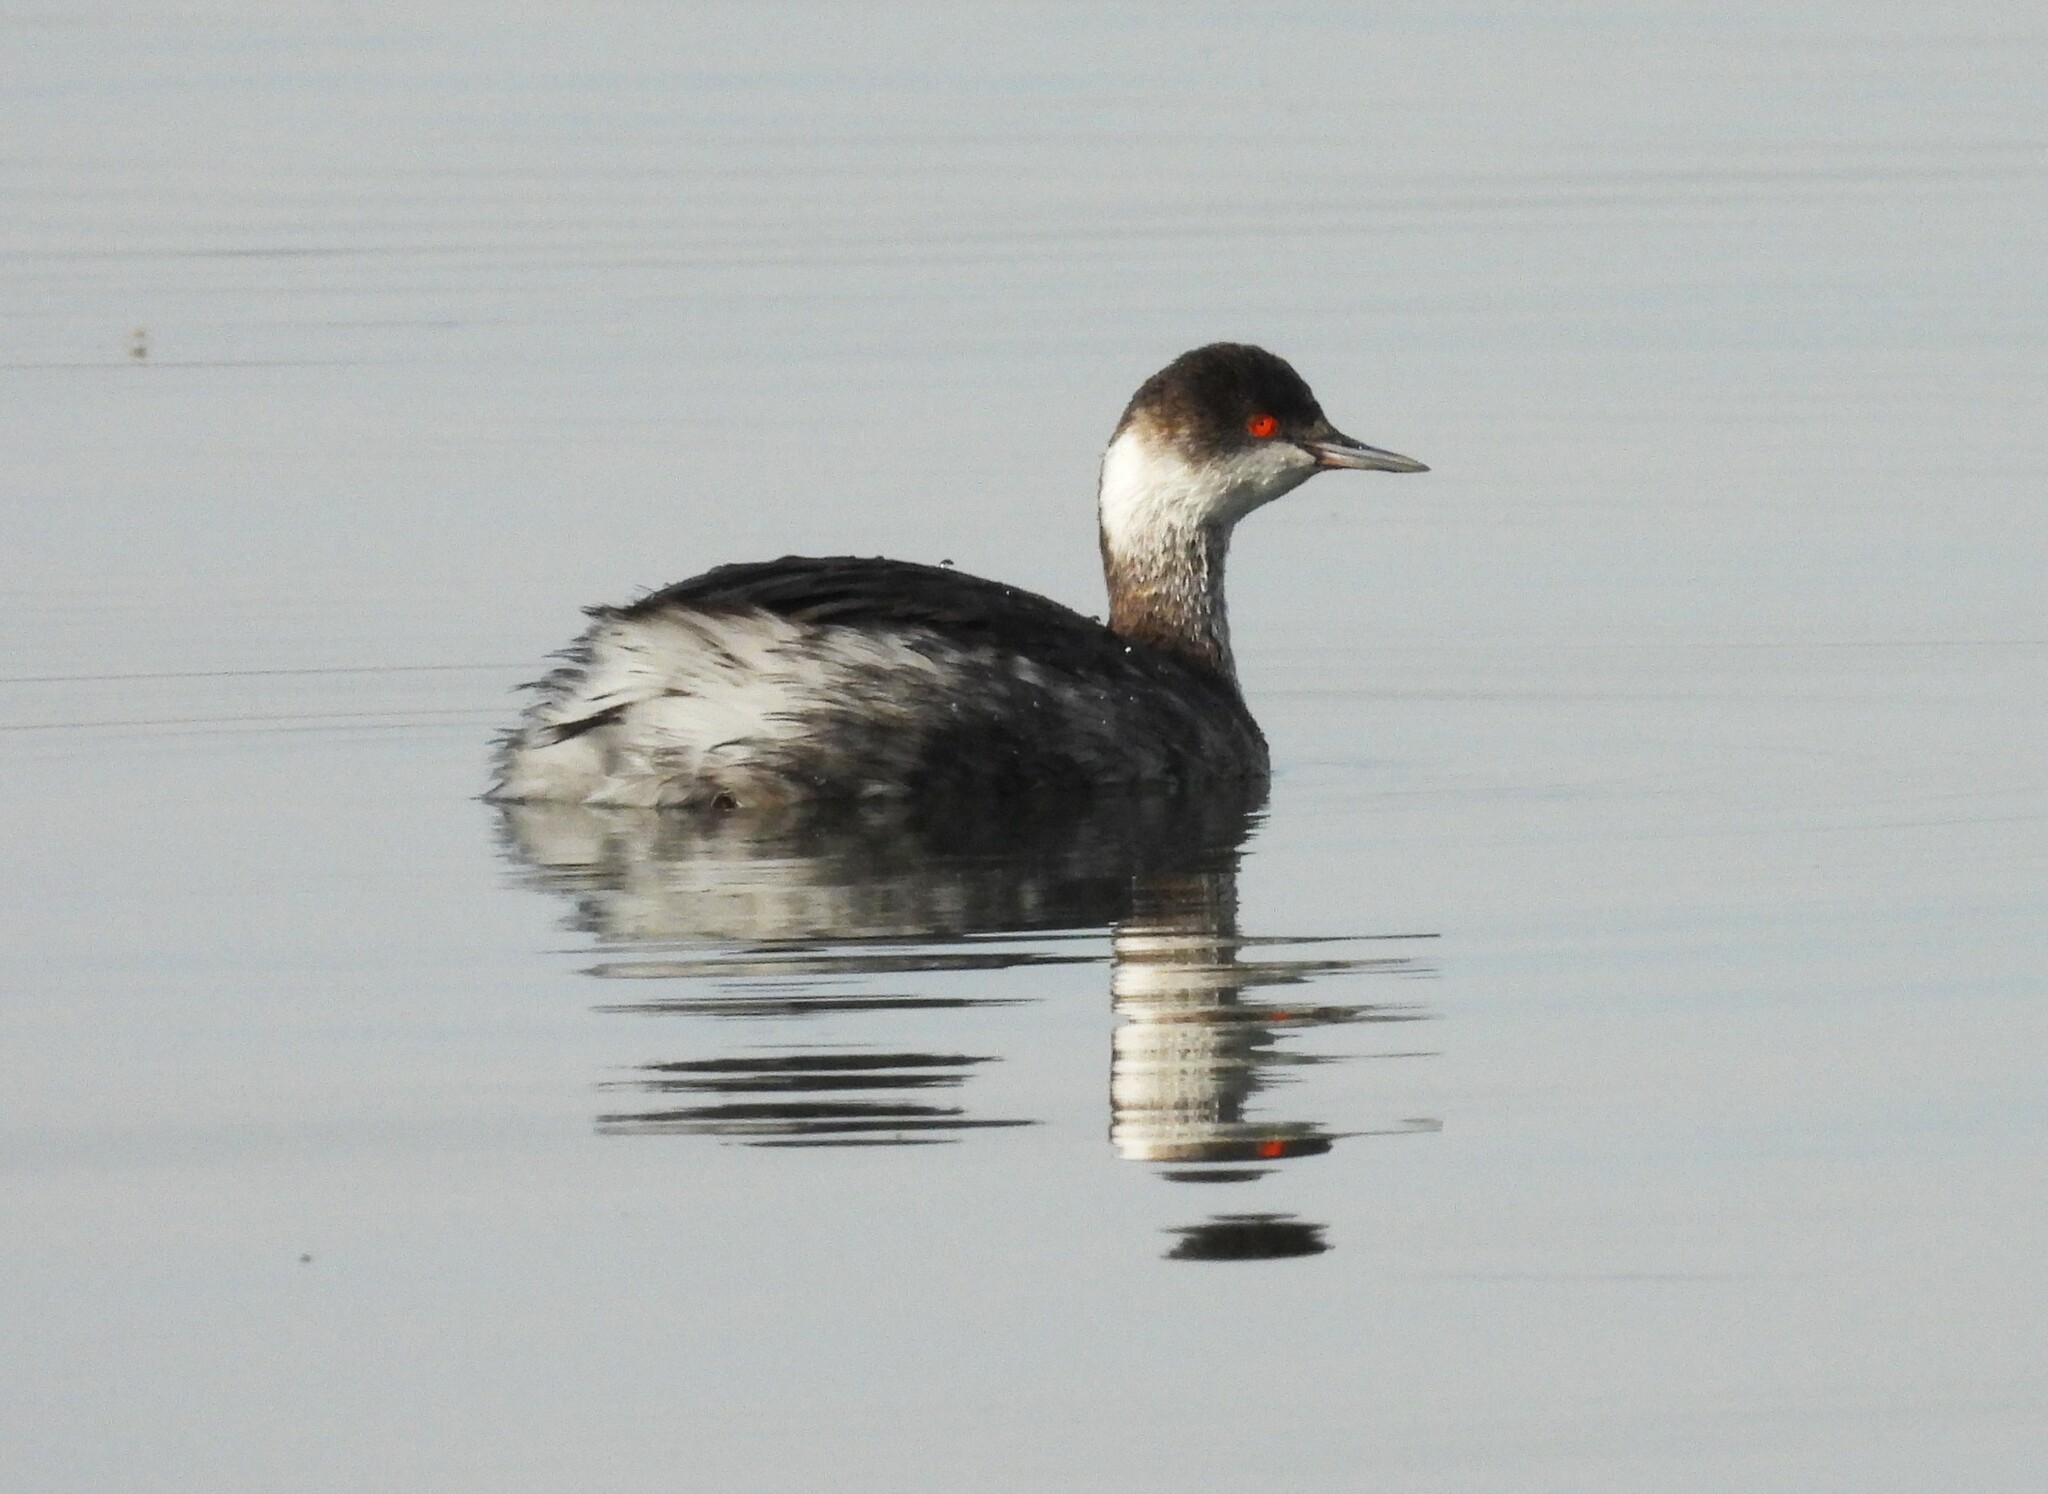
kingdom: Animalia
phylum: Chordata
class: Aves
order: Podicipediformes
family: Podicipedidae
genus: Podiceps
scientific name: Podiceps nigricollis
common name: Black-necked grebe
